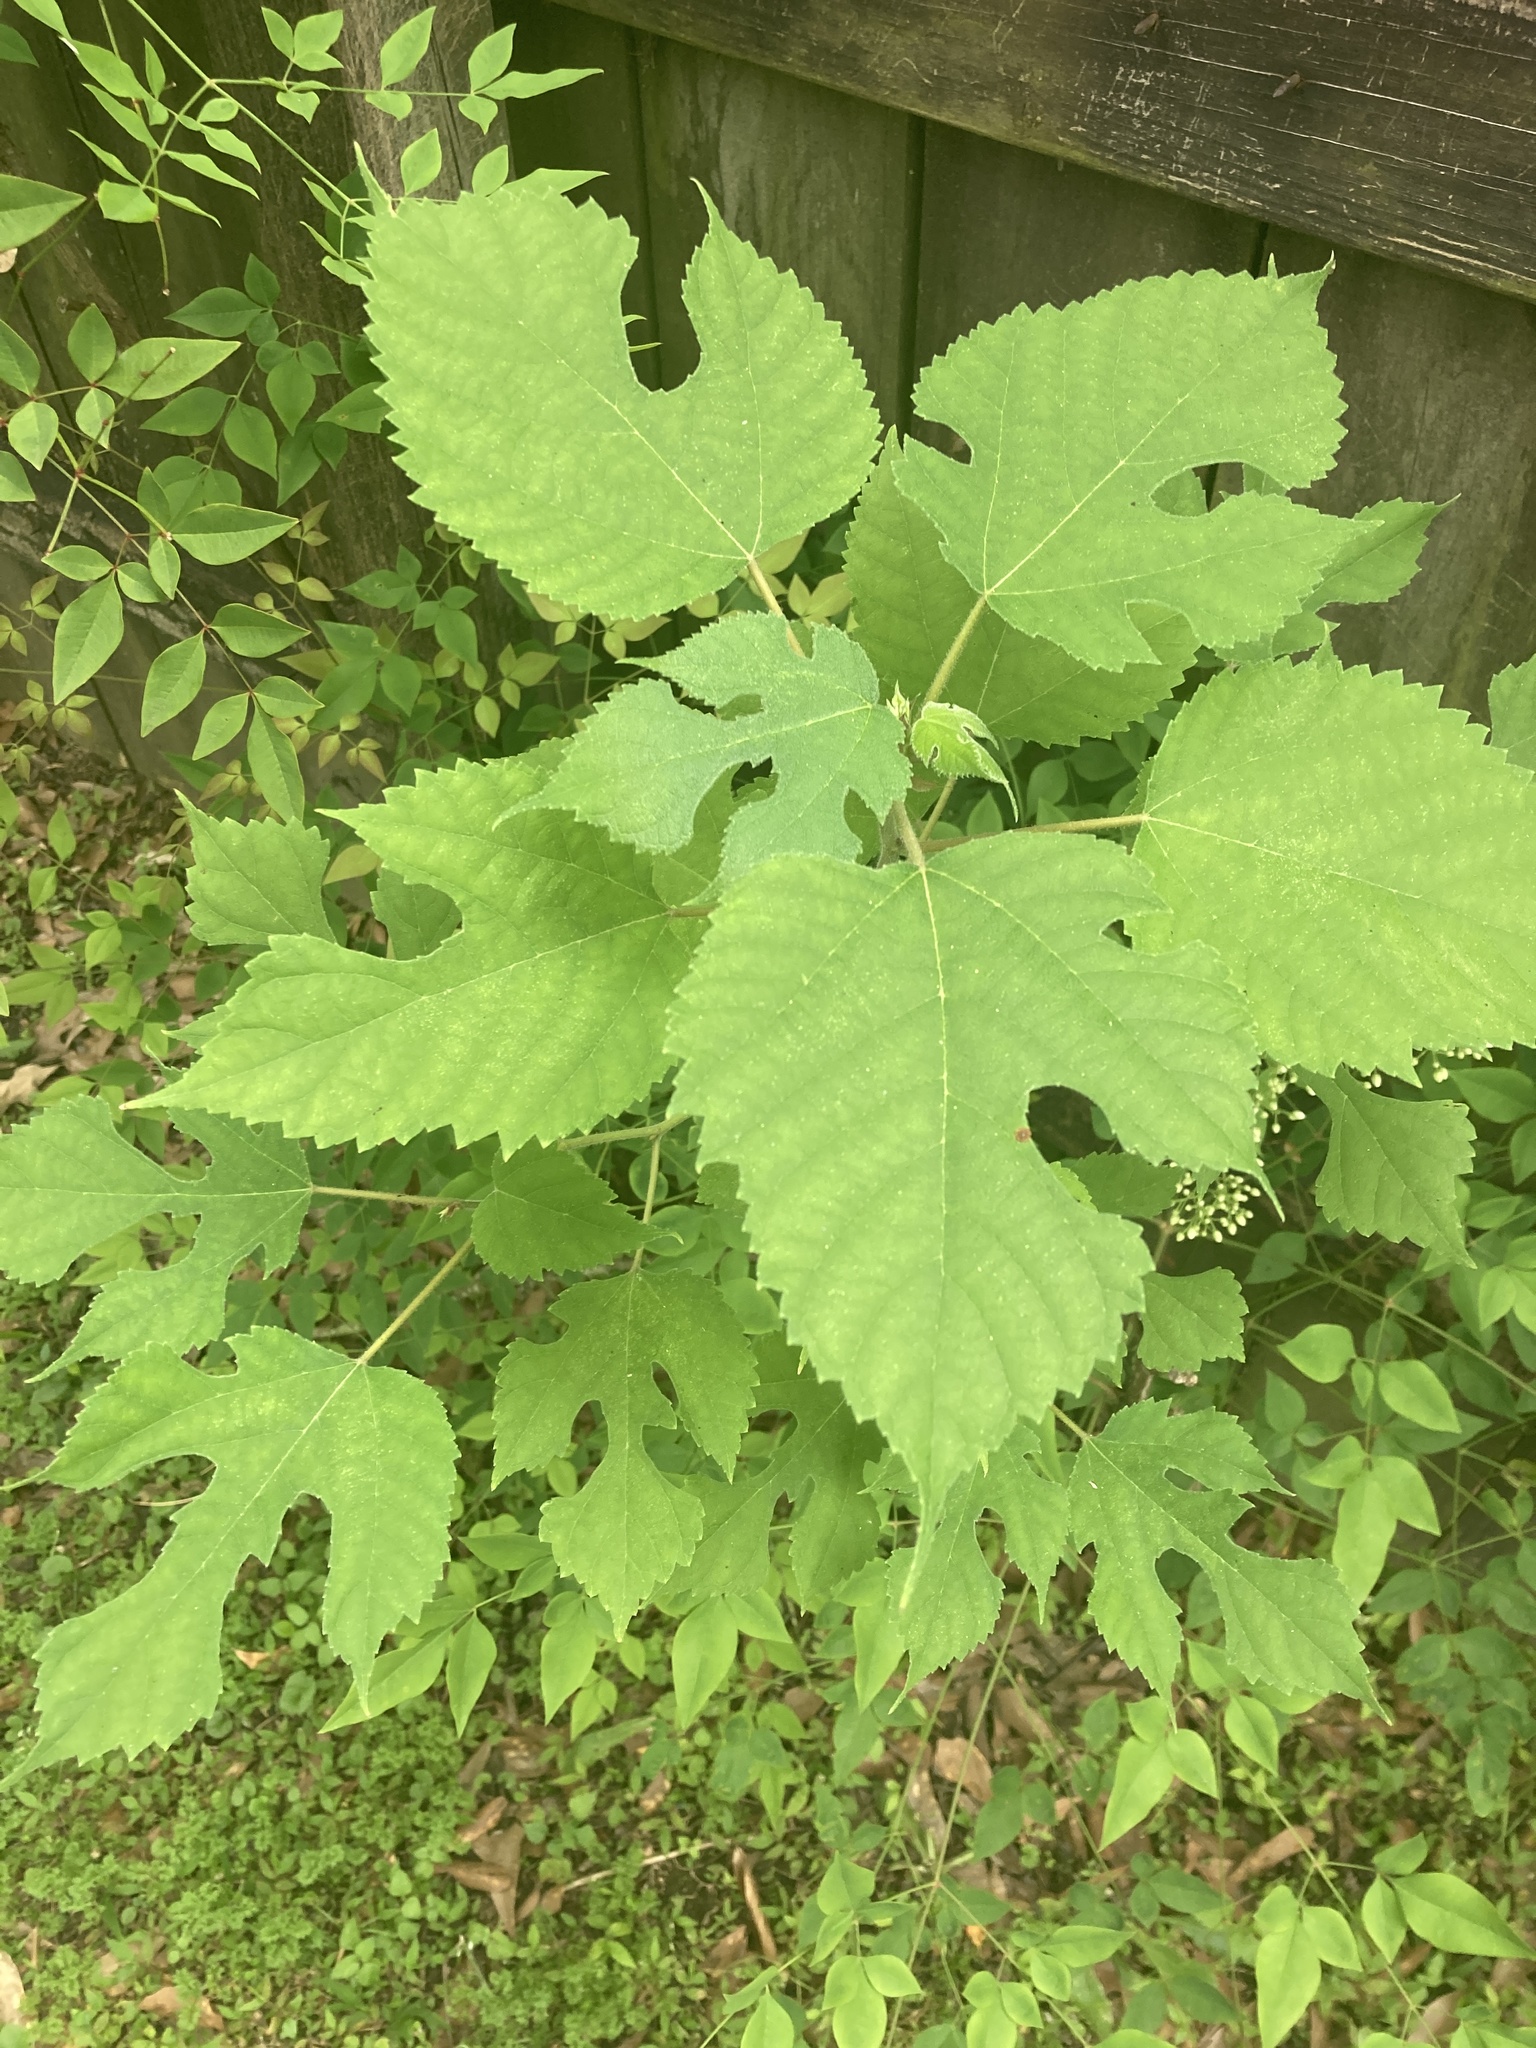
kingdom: Plantae
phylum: Tracheophyta
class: Magnoliopsida
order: Rosales
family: Moraceae
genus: Broussonetia
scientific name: Broussonetia papyrifera
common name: Paper mulberry
